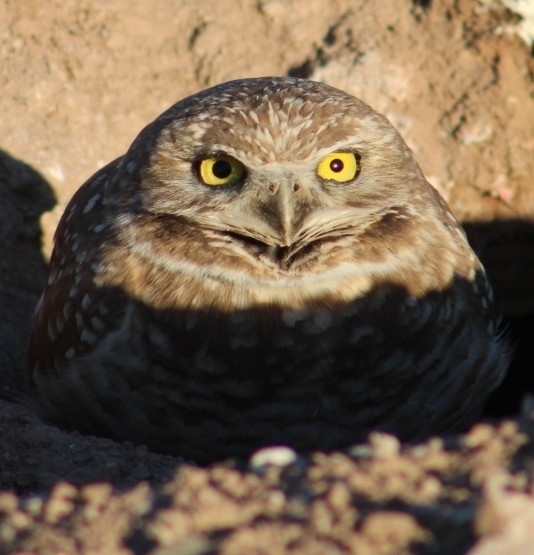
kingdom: Animalia
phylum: Chordata
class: Aves
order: Strigiformes
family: Strigidae
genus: Athene
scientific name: Athene cunicularia
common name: Burrowing owl
